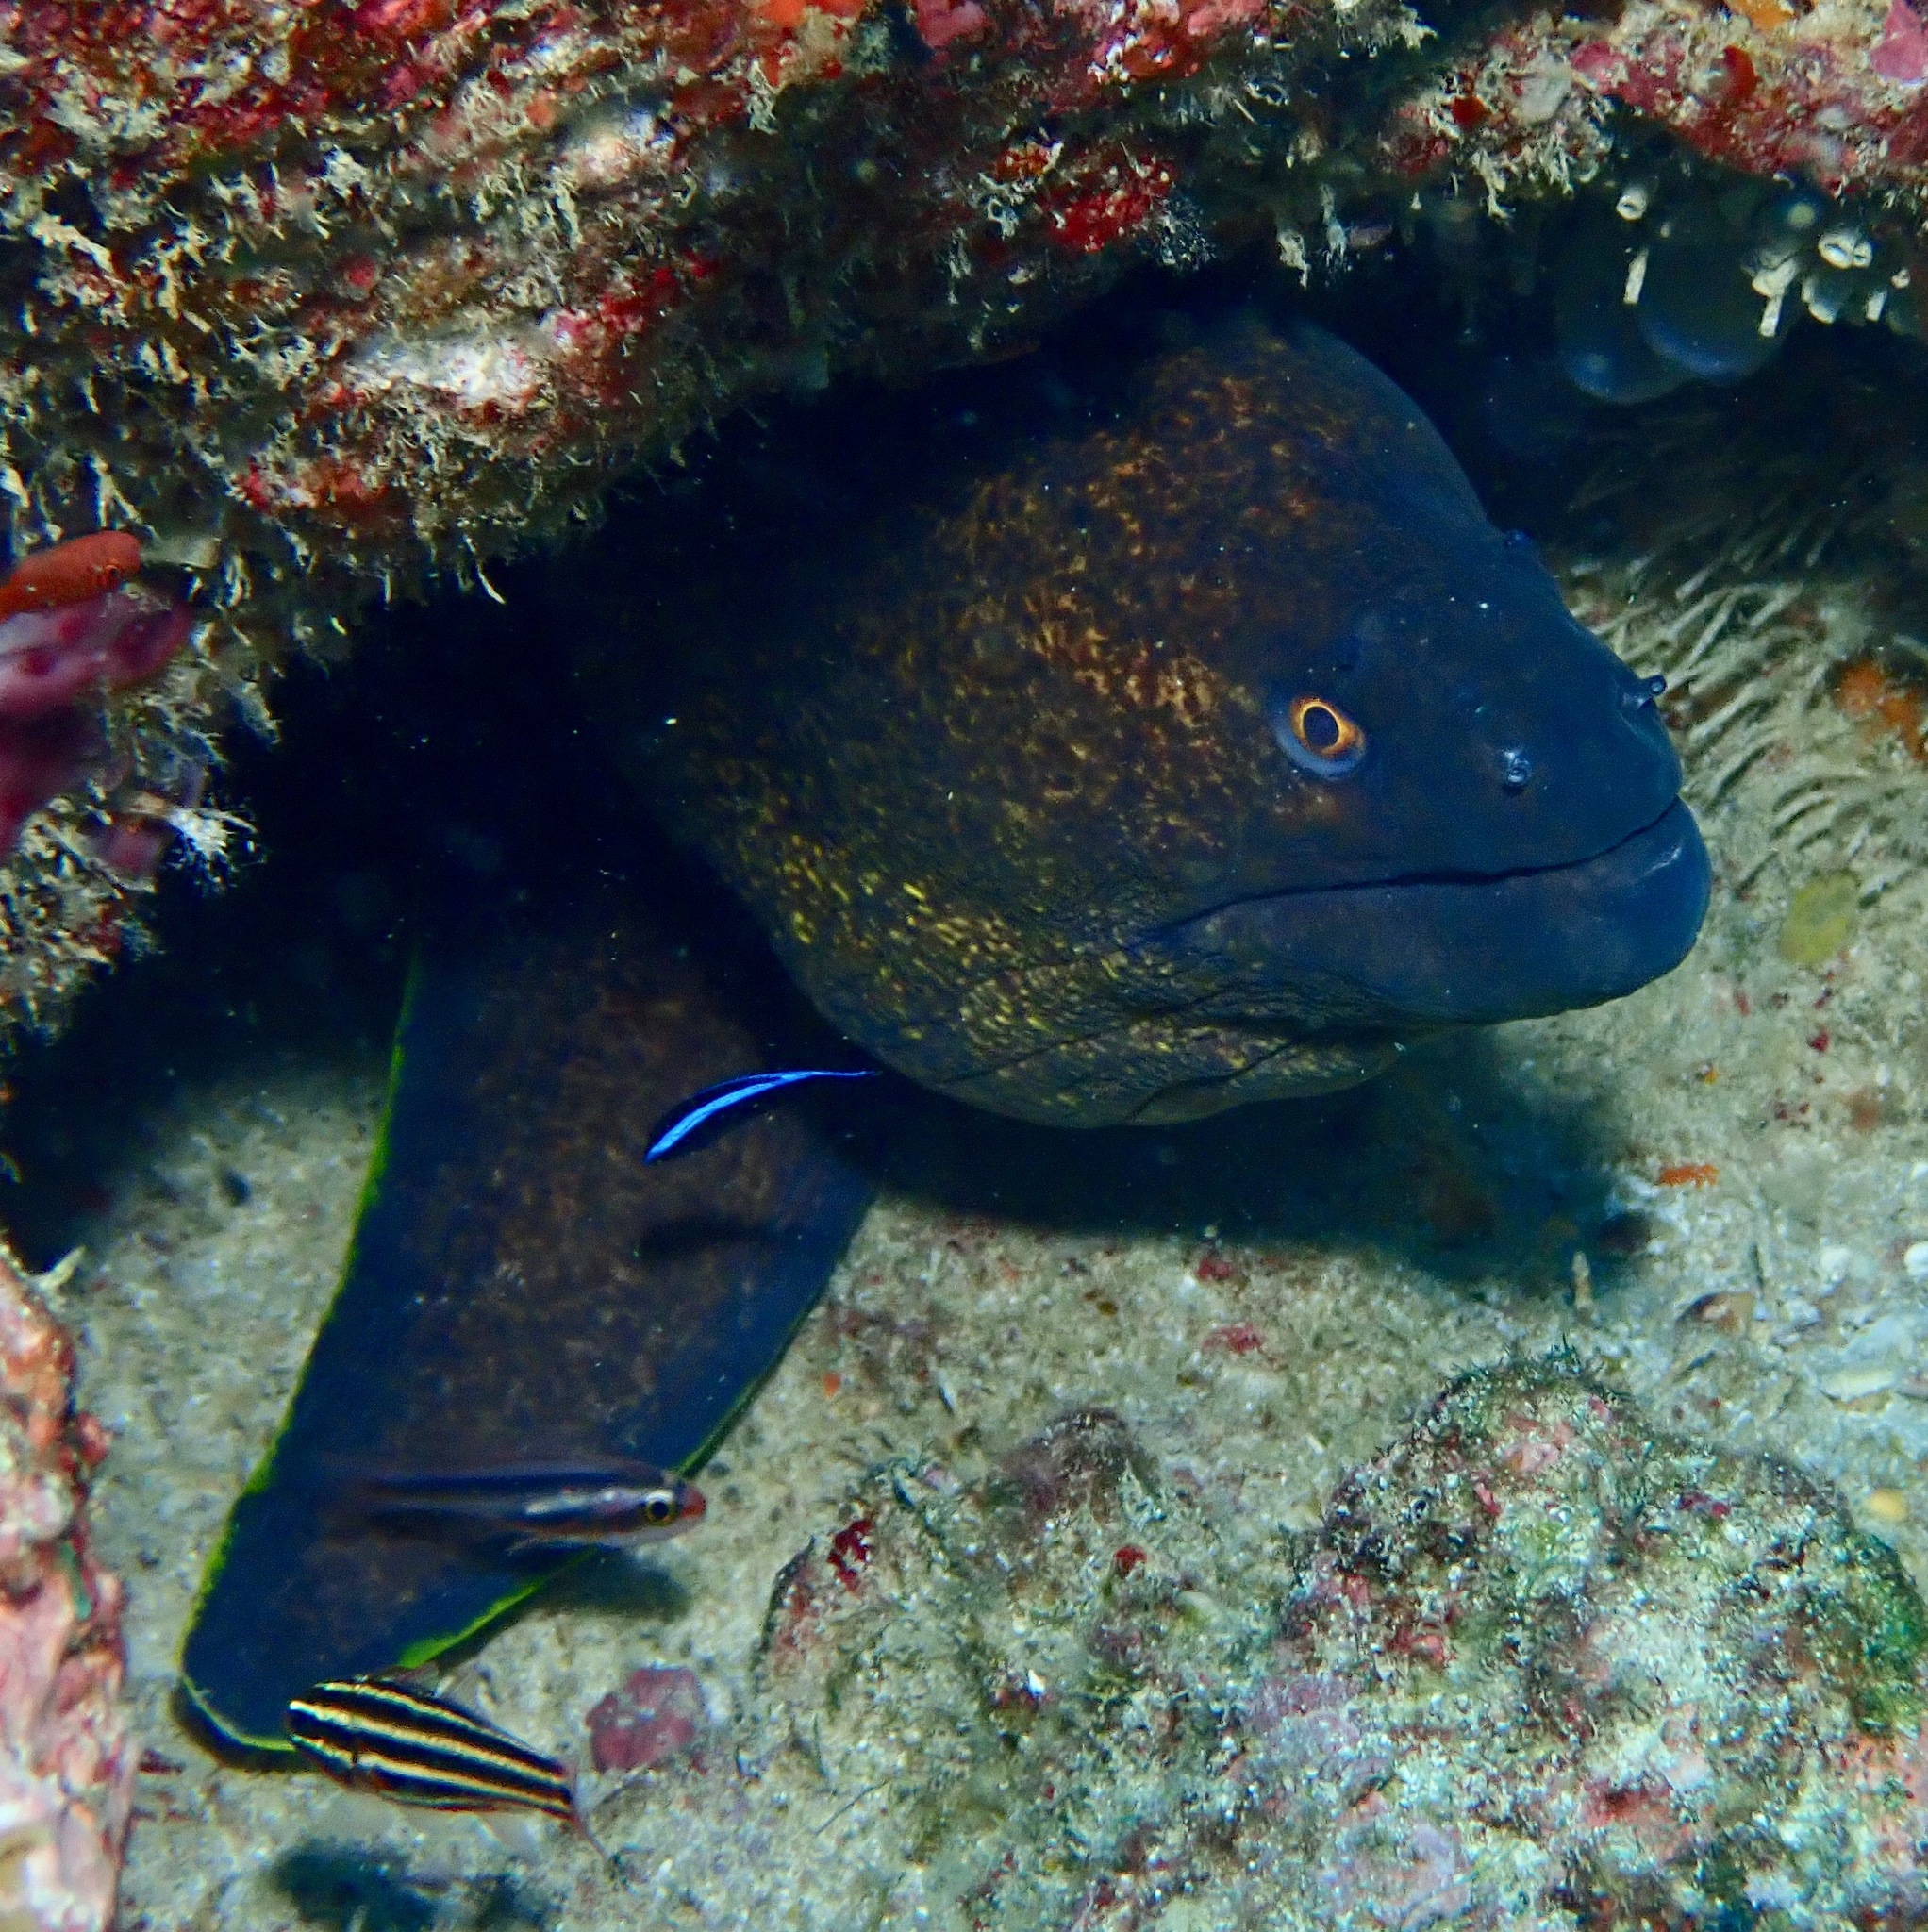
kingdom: Animalia
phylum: Chordata
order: Anguilliformes
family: Muraenidae
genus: Gymnothorax
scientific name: Gymnothorax flavimarginatus
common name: Yellow-edged moray
